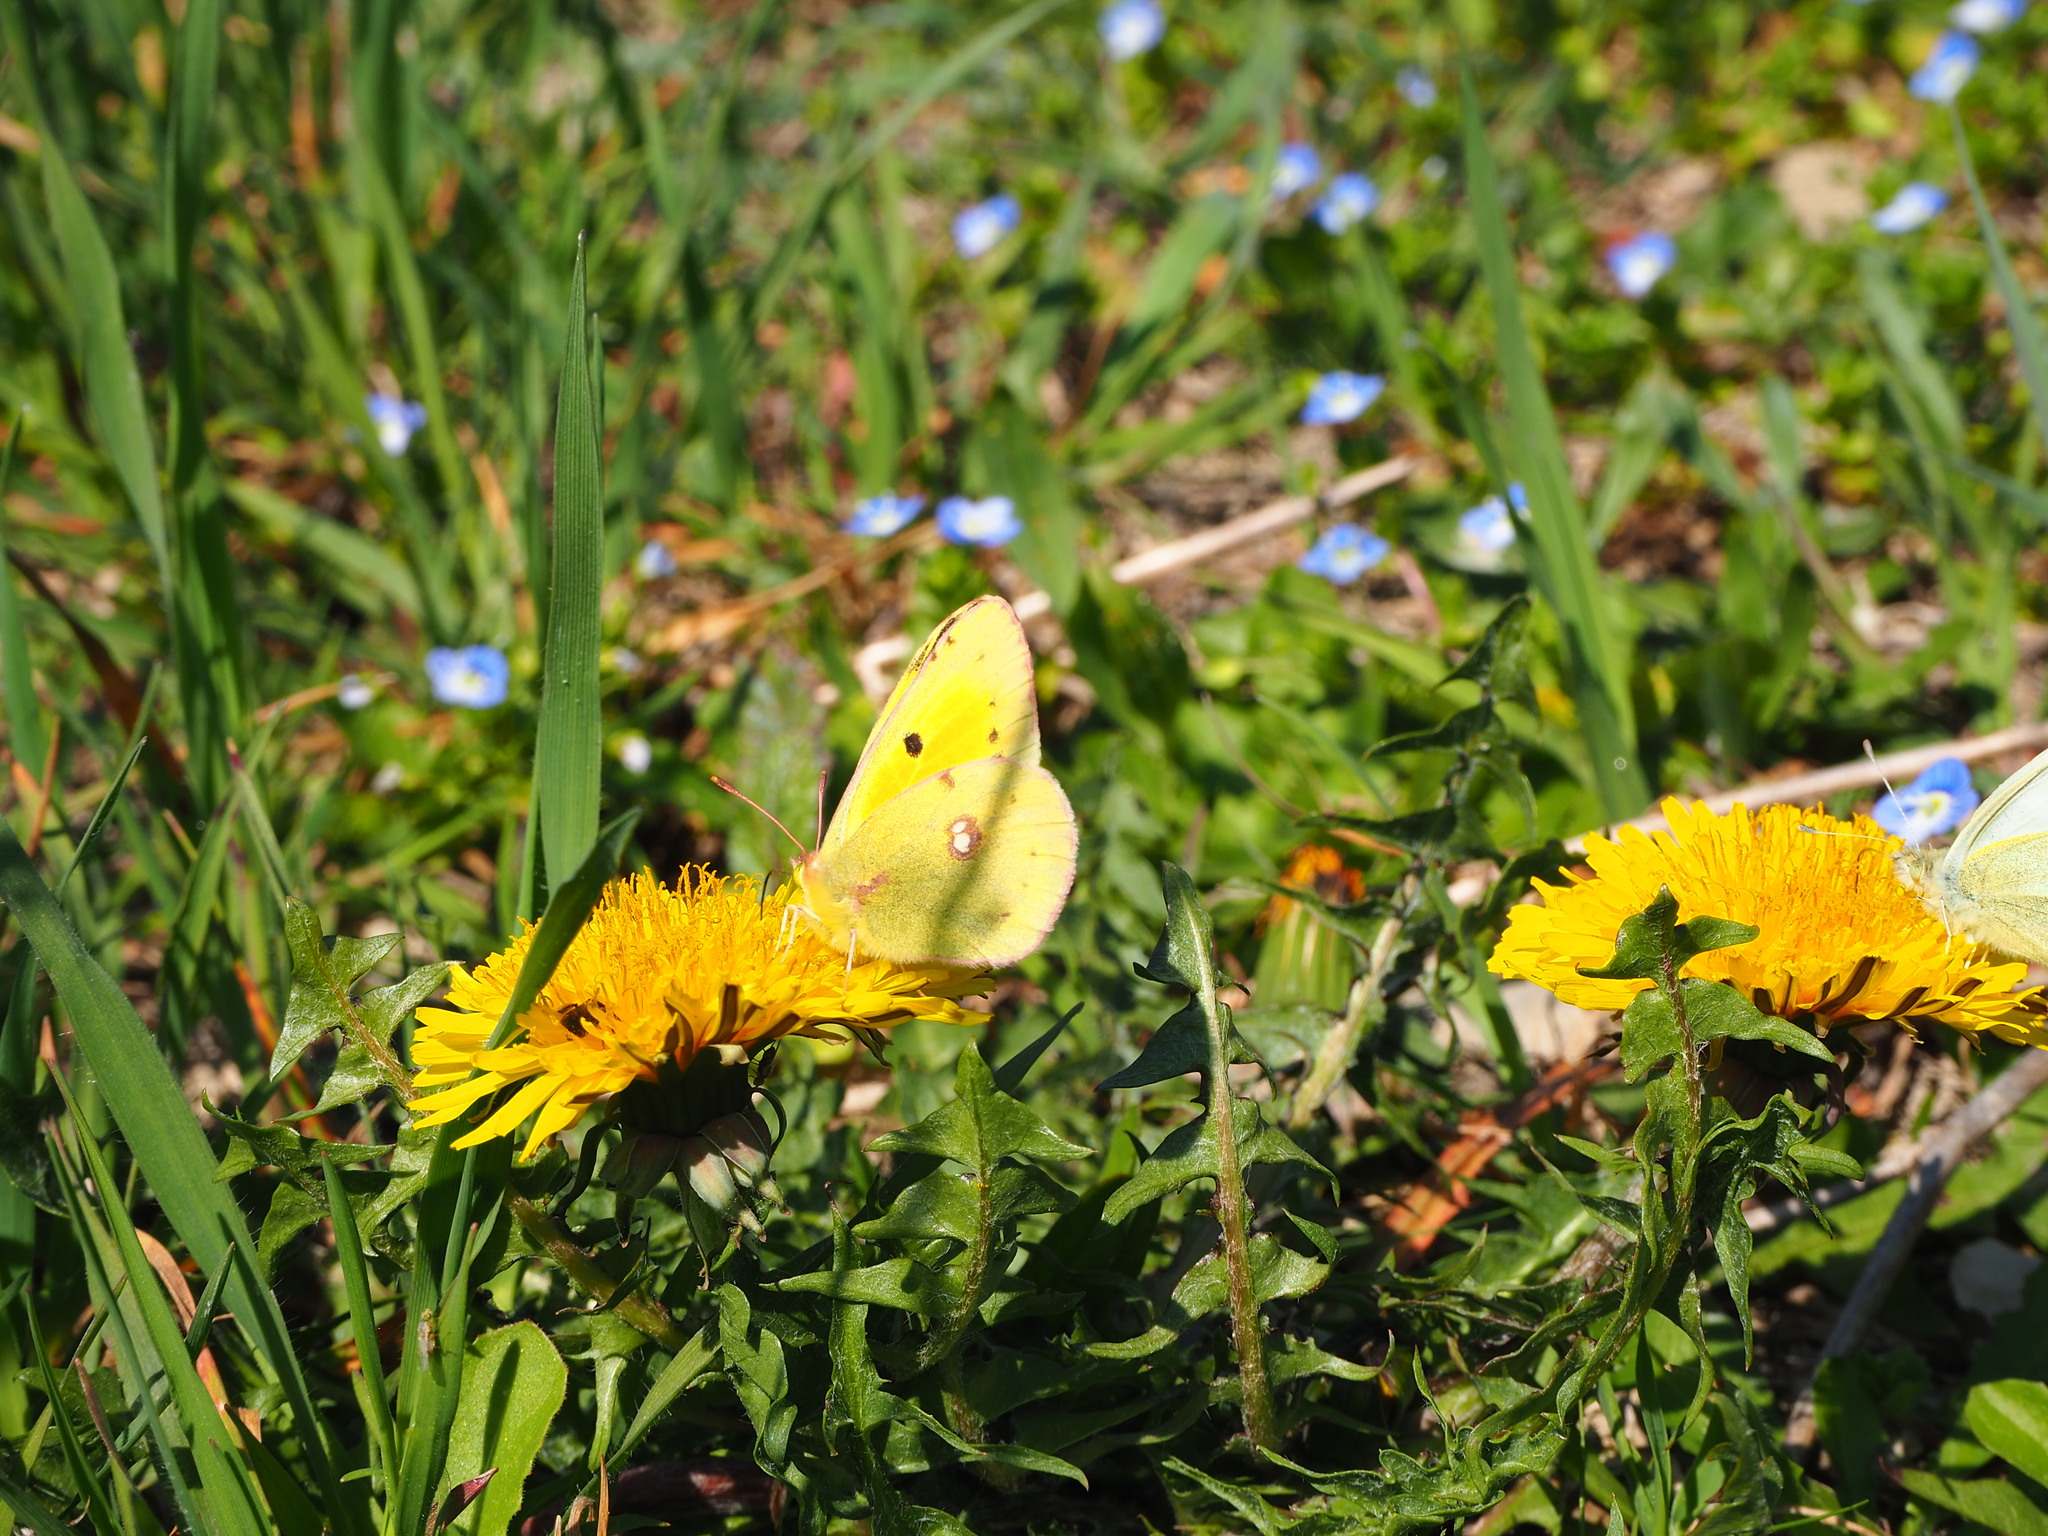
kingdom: Animalia
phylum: Arthropoda
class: Insecta
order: Lepidoptera
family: Pieridae
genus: Colias
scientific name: Colias croceus
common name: Clouded yellow
